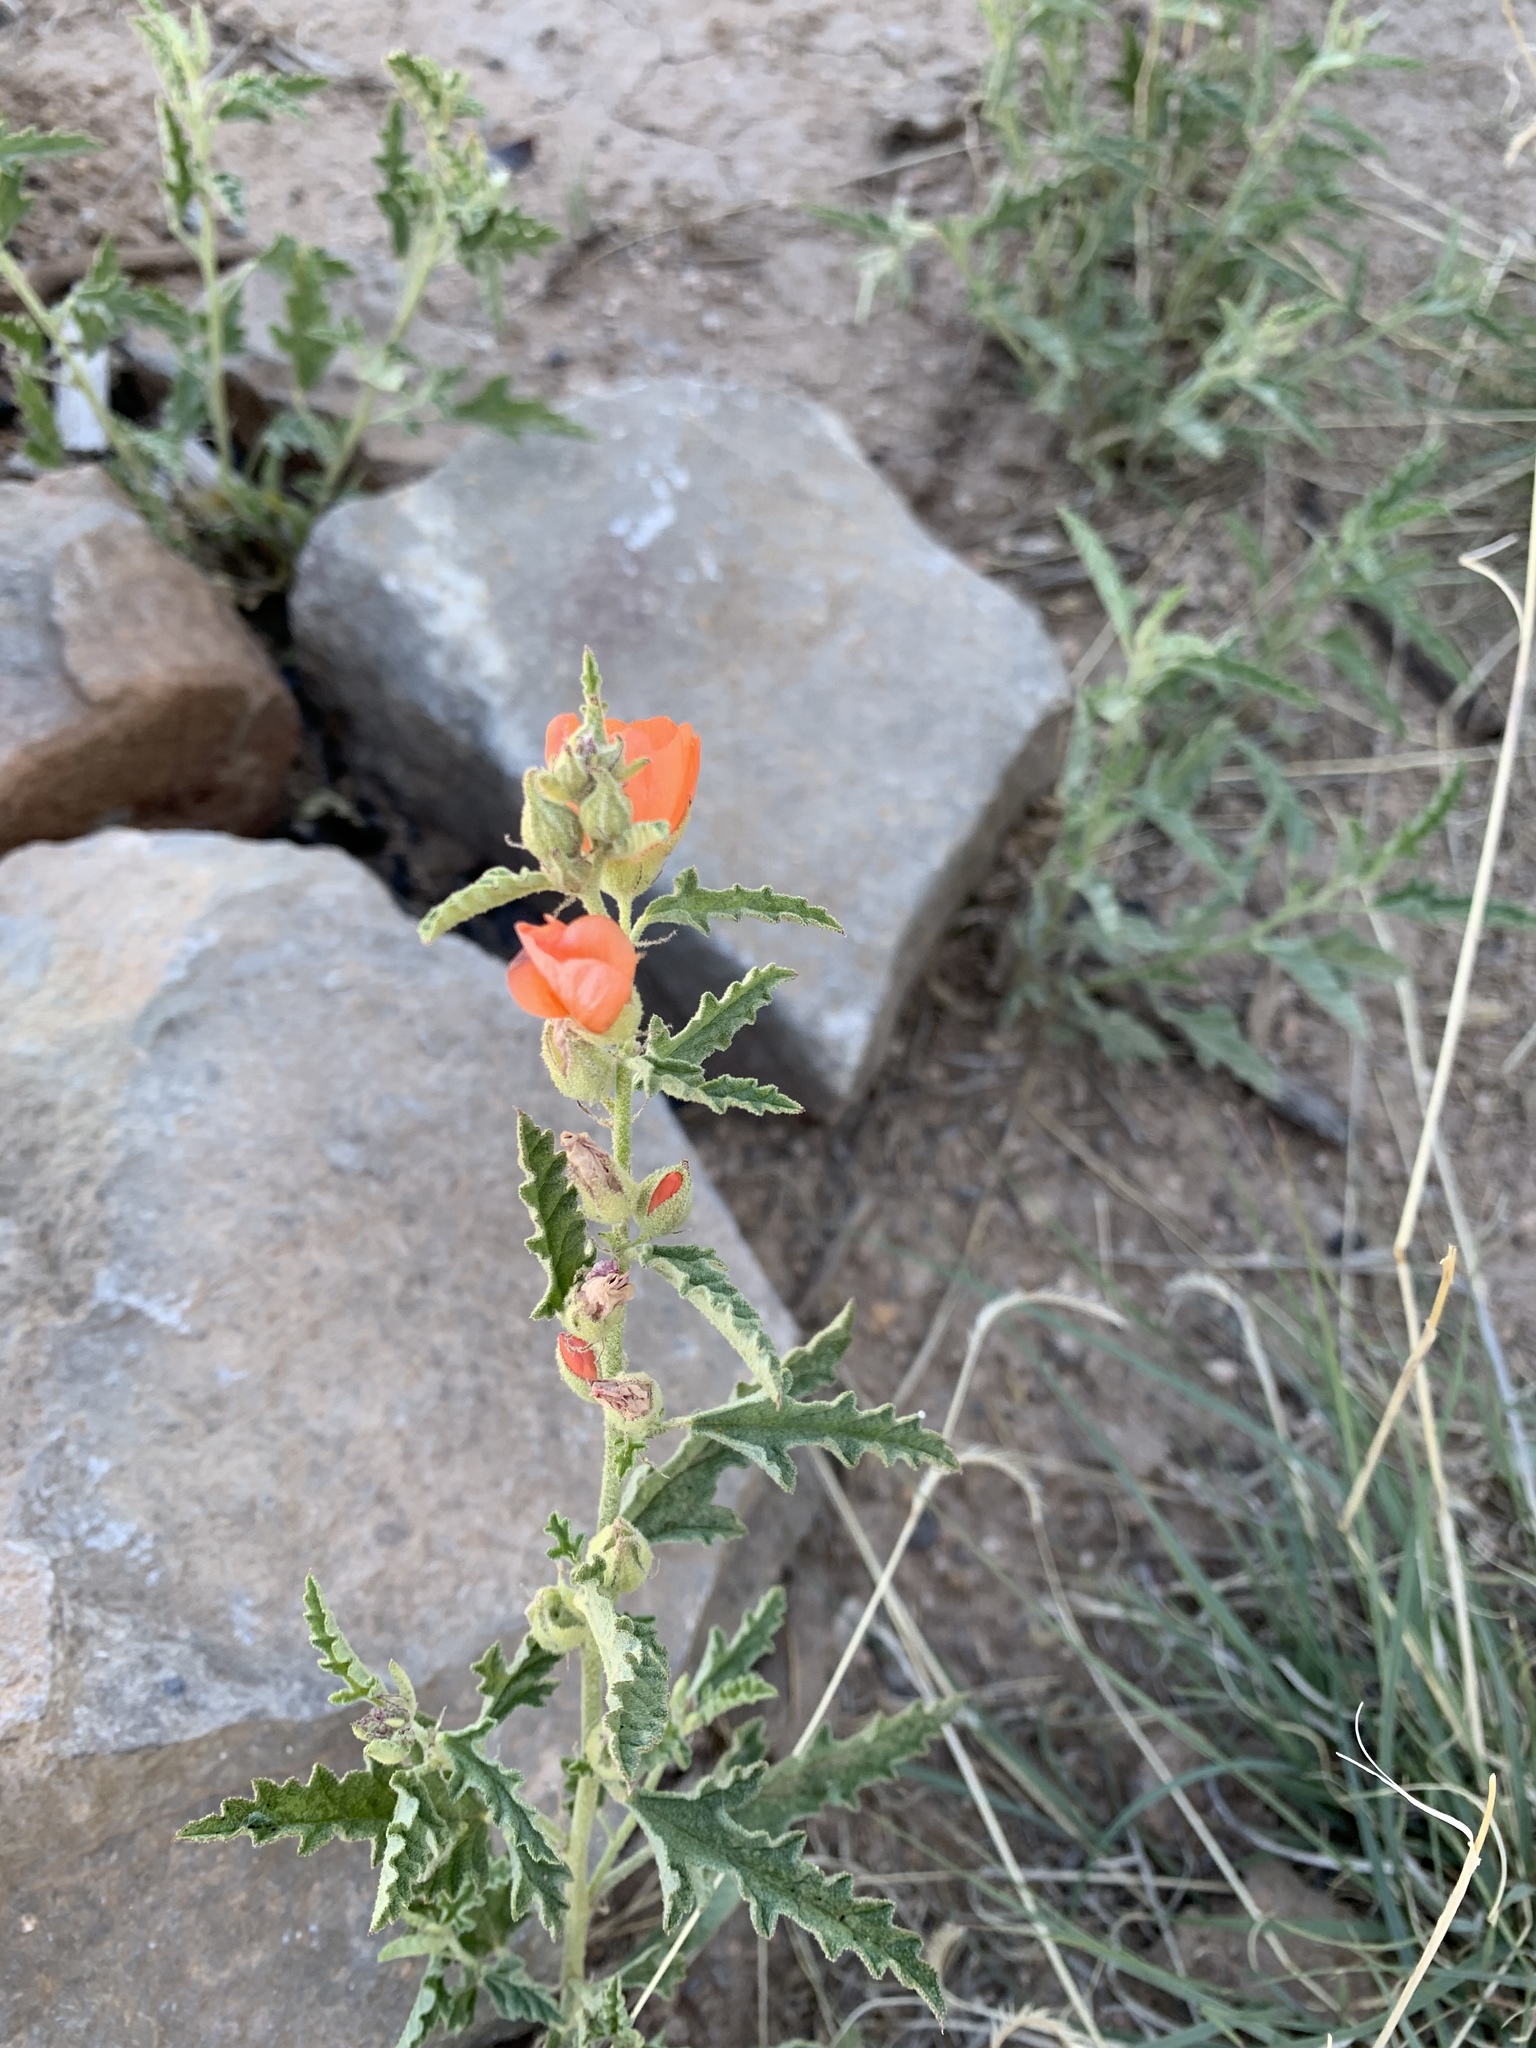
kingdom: Plantae
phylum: Tracheophyta
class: Magnoliopsida
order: Malvales
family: Malvaceae
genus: Sphaeralcea
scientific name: Sphaeralcea hastulata
